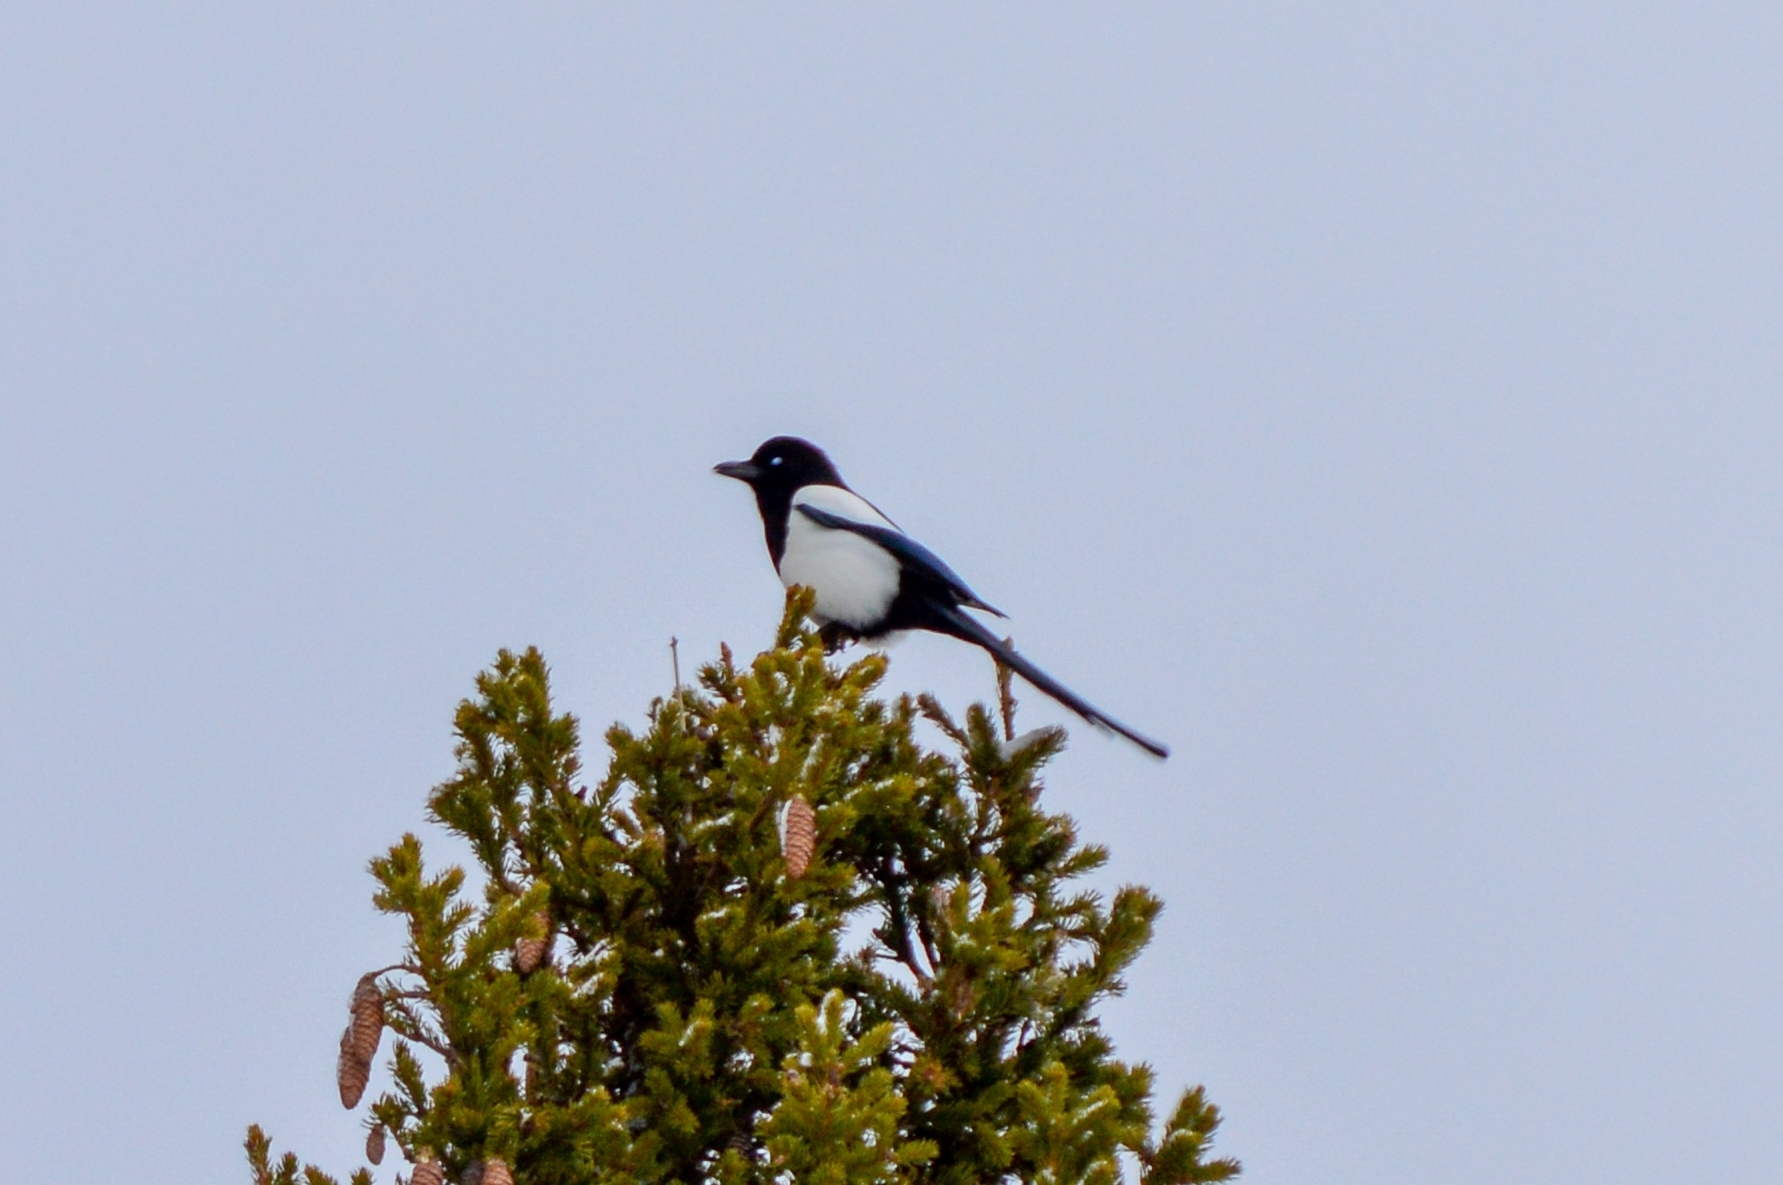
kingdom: Animalia
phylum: Chordata
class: Aves
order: Passeriformes
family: Corvidae
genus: Pica
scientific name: Pica pica
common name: Eurasian magpie
